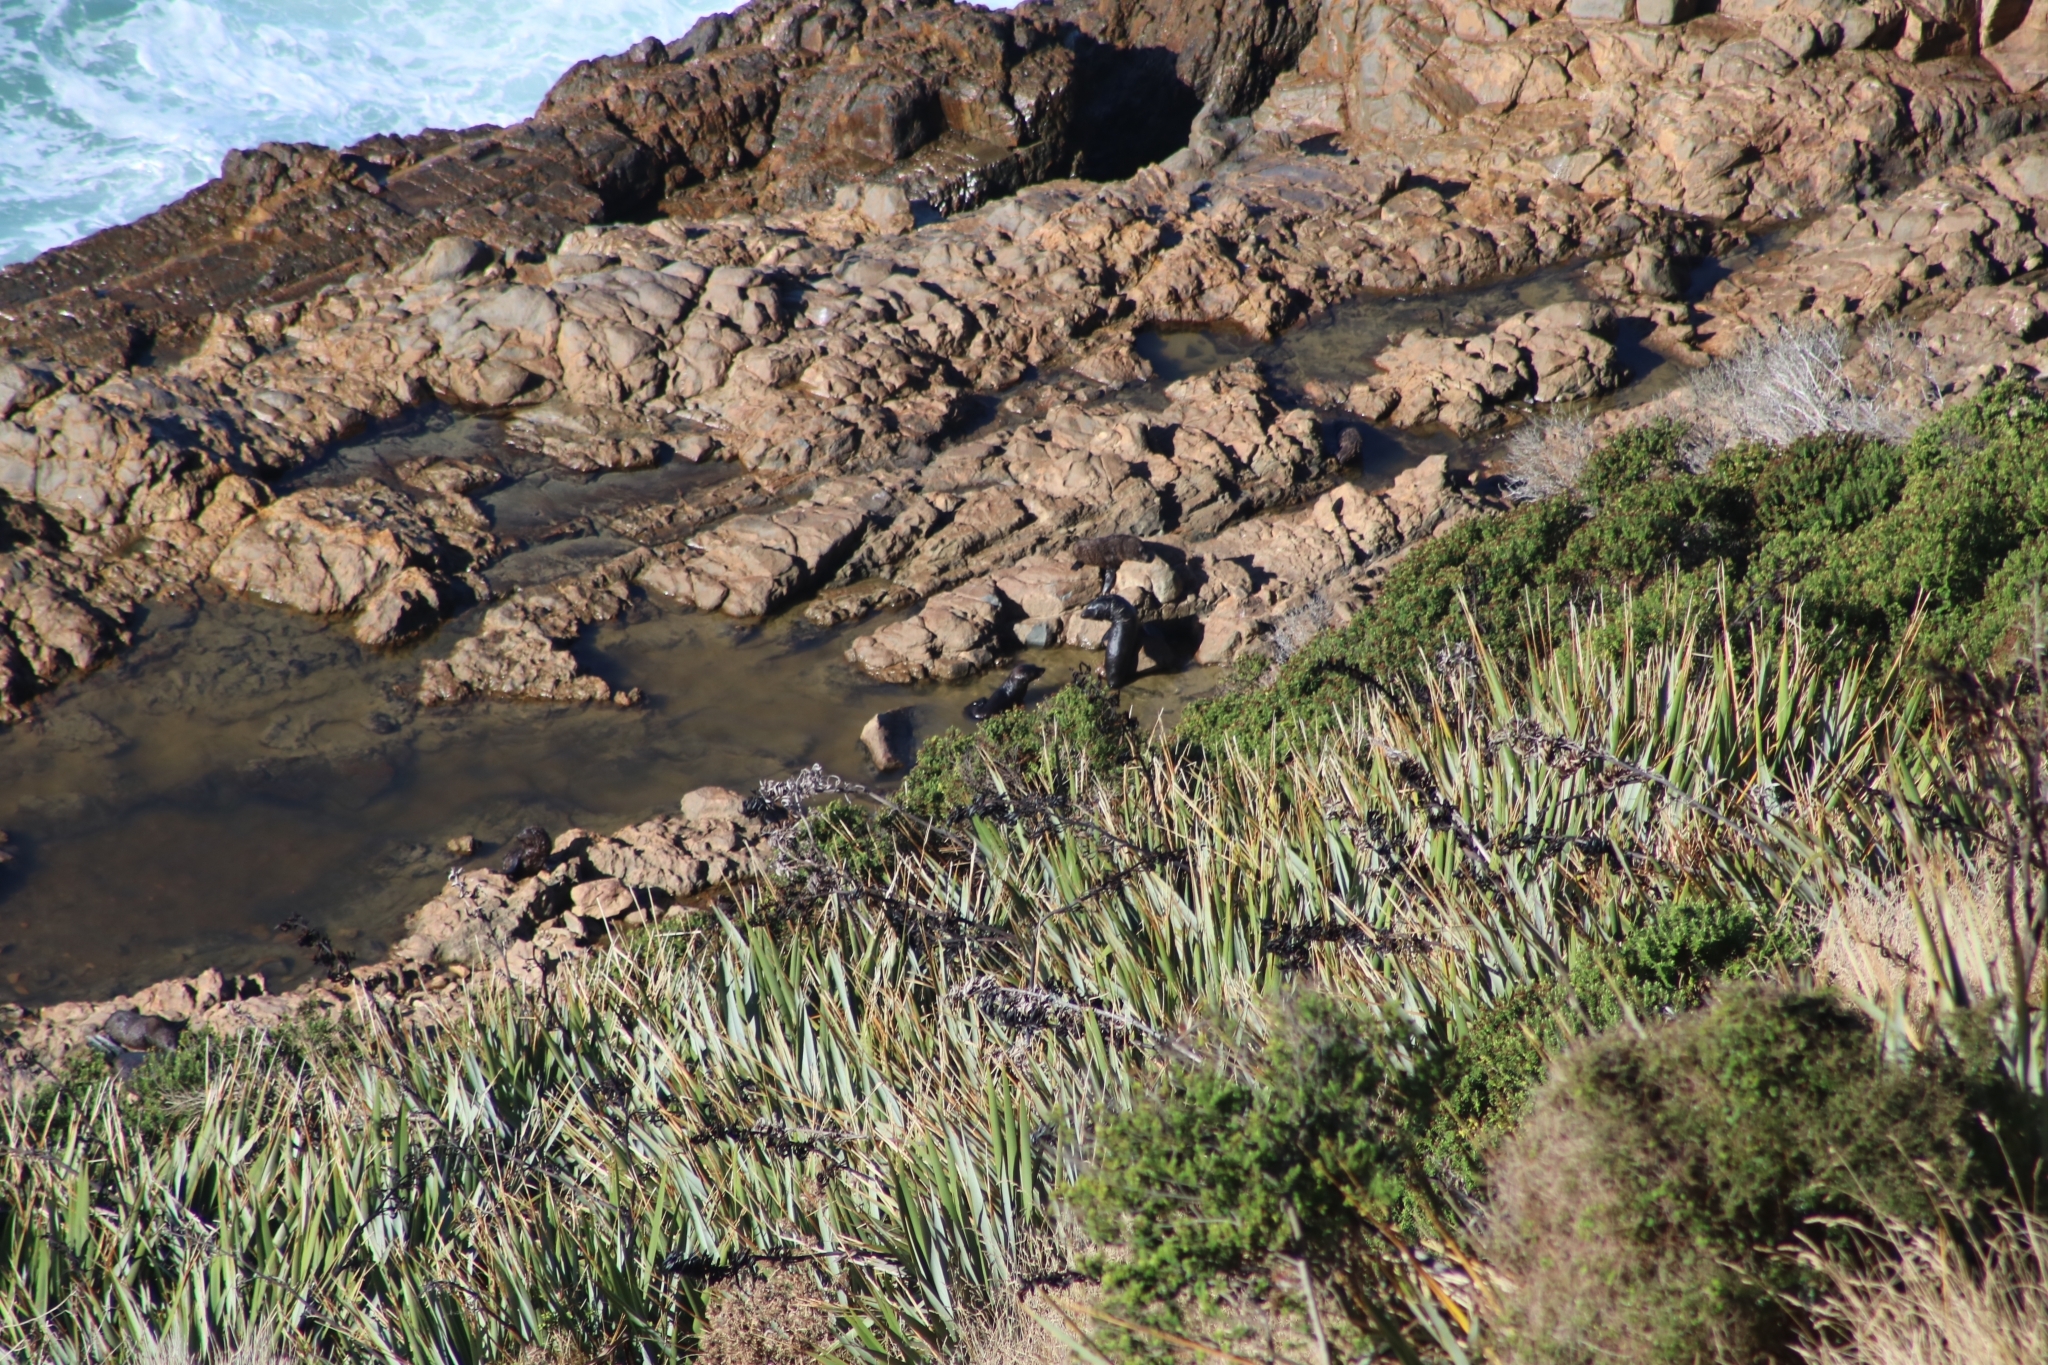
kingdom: Animalia
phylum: Chordata
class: Mammalia
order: Carnivora
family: Otariidae
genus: Arctocephalus
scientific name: Arctocephalus forsteri
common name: New zealand fur seal
